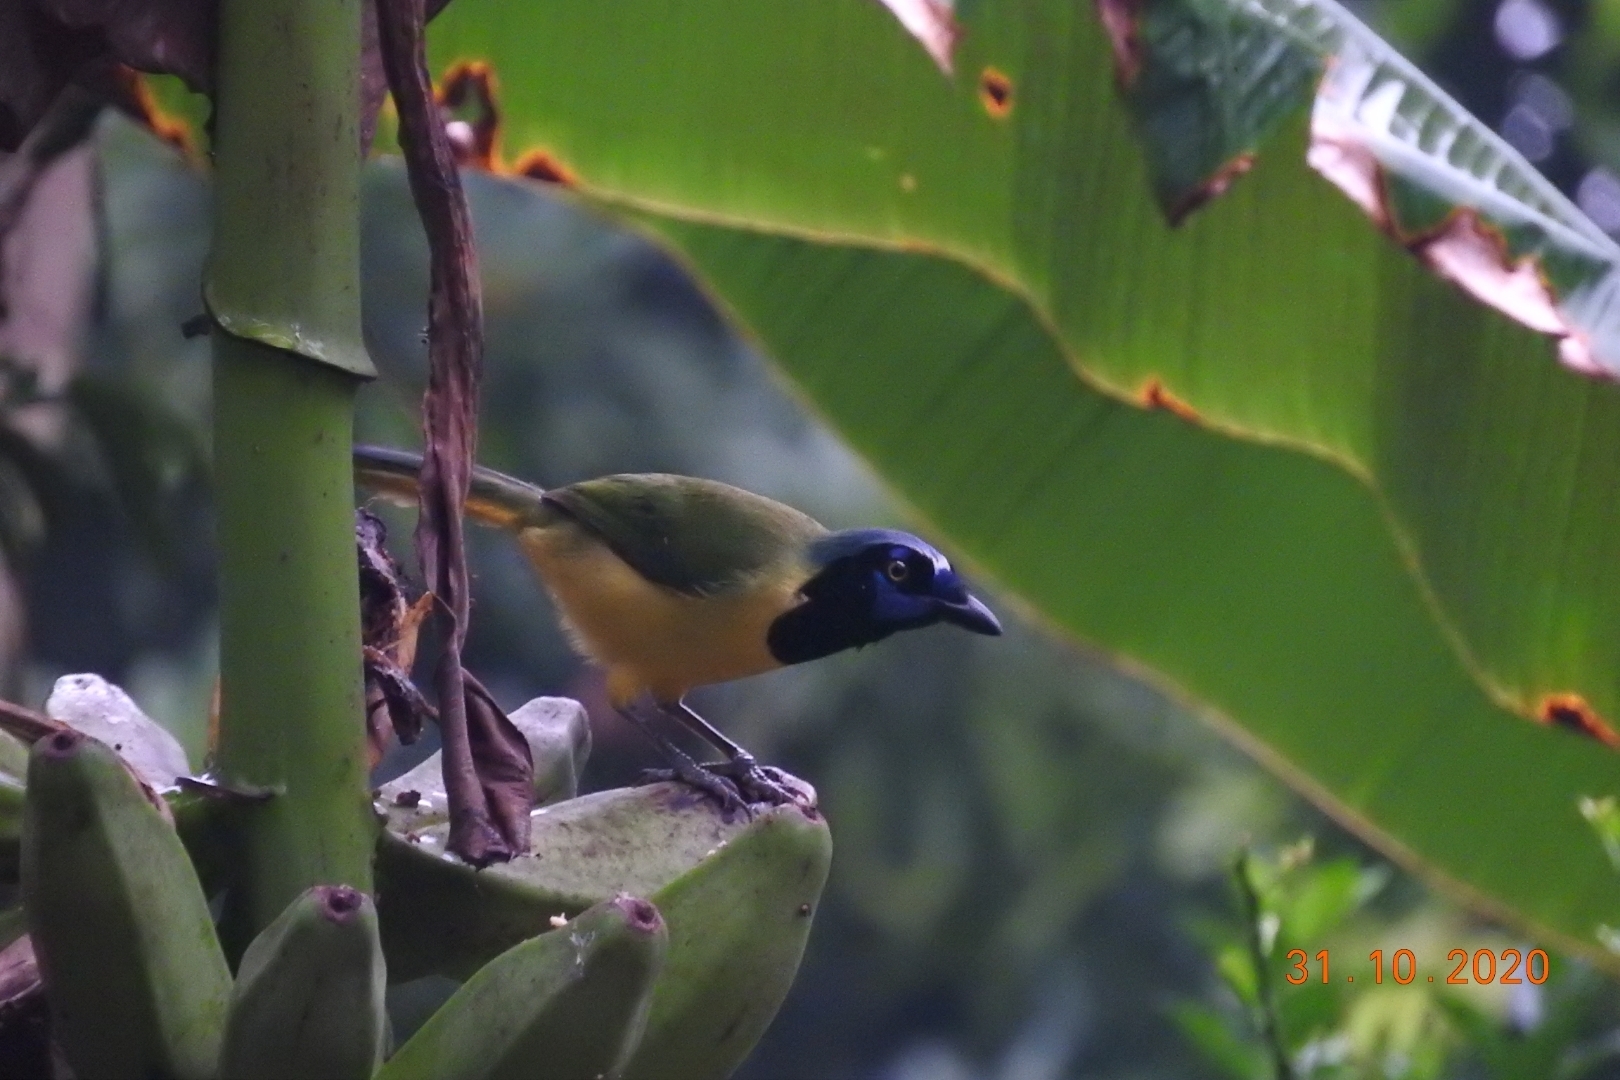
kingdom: Animalia
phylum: Chordata
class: Aves
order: Passeriformes
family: Corvidae
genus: Cyanocorax
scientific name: Cyanocorax yncas
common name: Green jay
